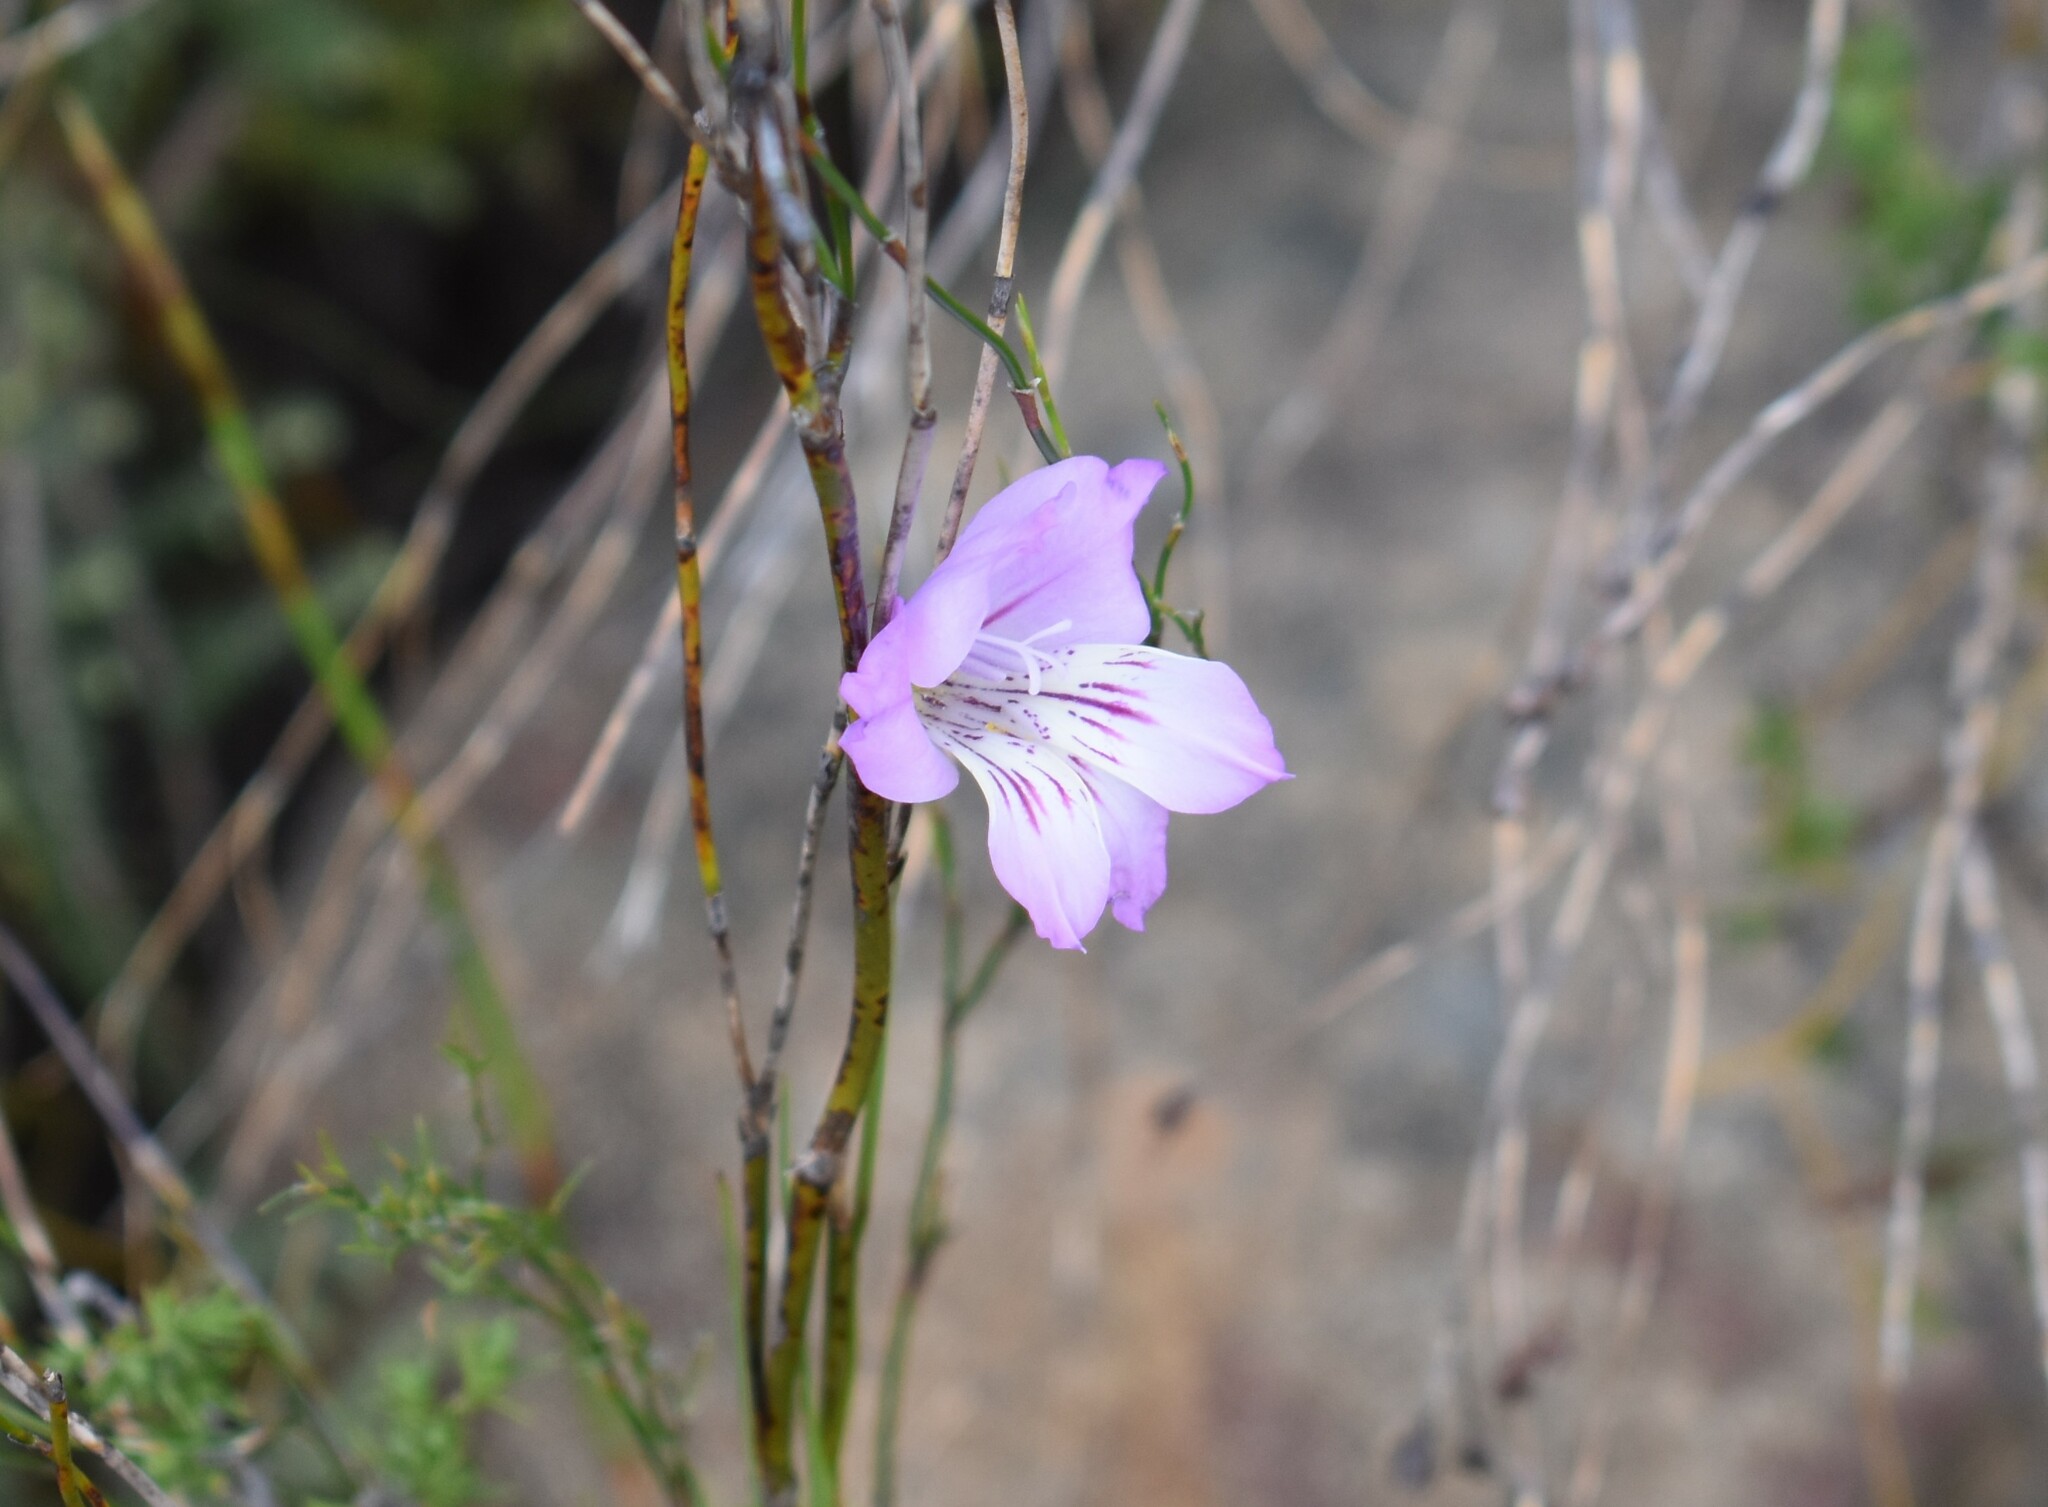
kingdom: Plantae
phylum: Tracheophyta
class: Liliopsida
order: Asparagales
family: Iridaceae
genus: Gladiolus
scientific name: Gladiolus hirsutus
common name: Small pink afrikaner
